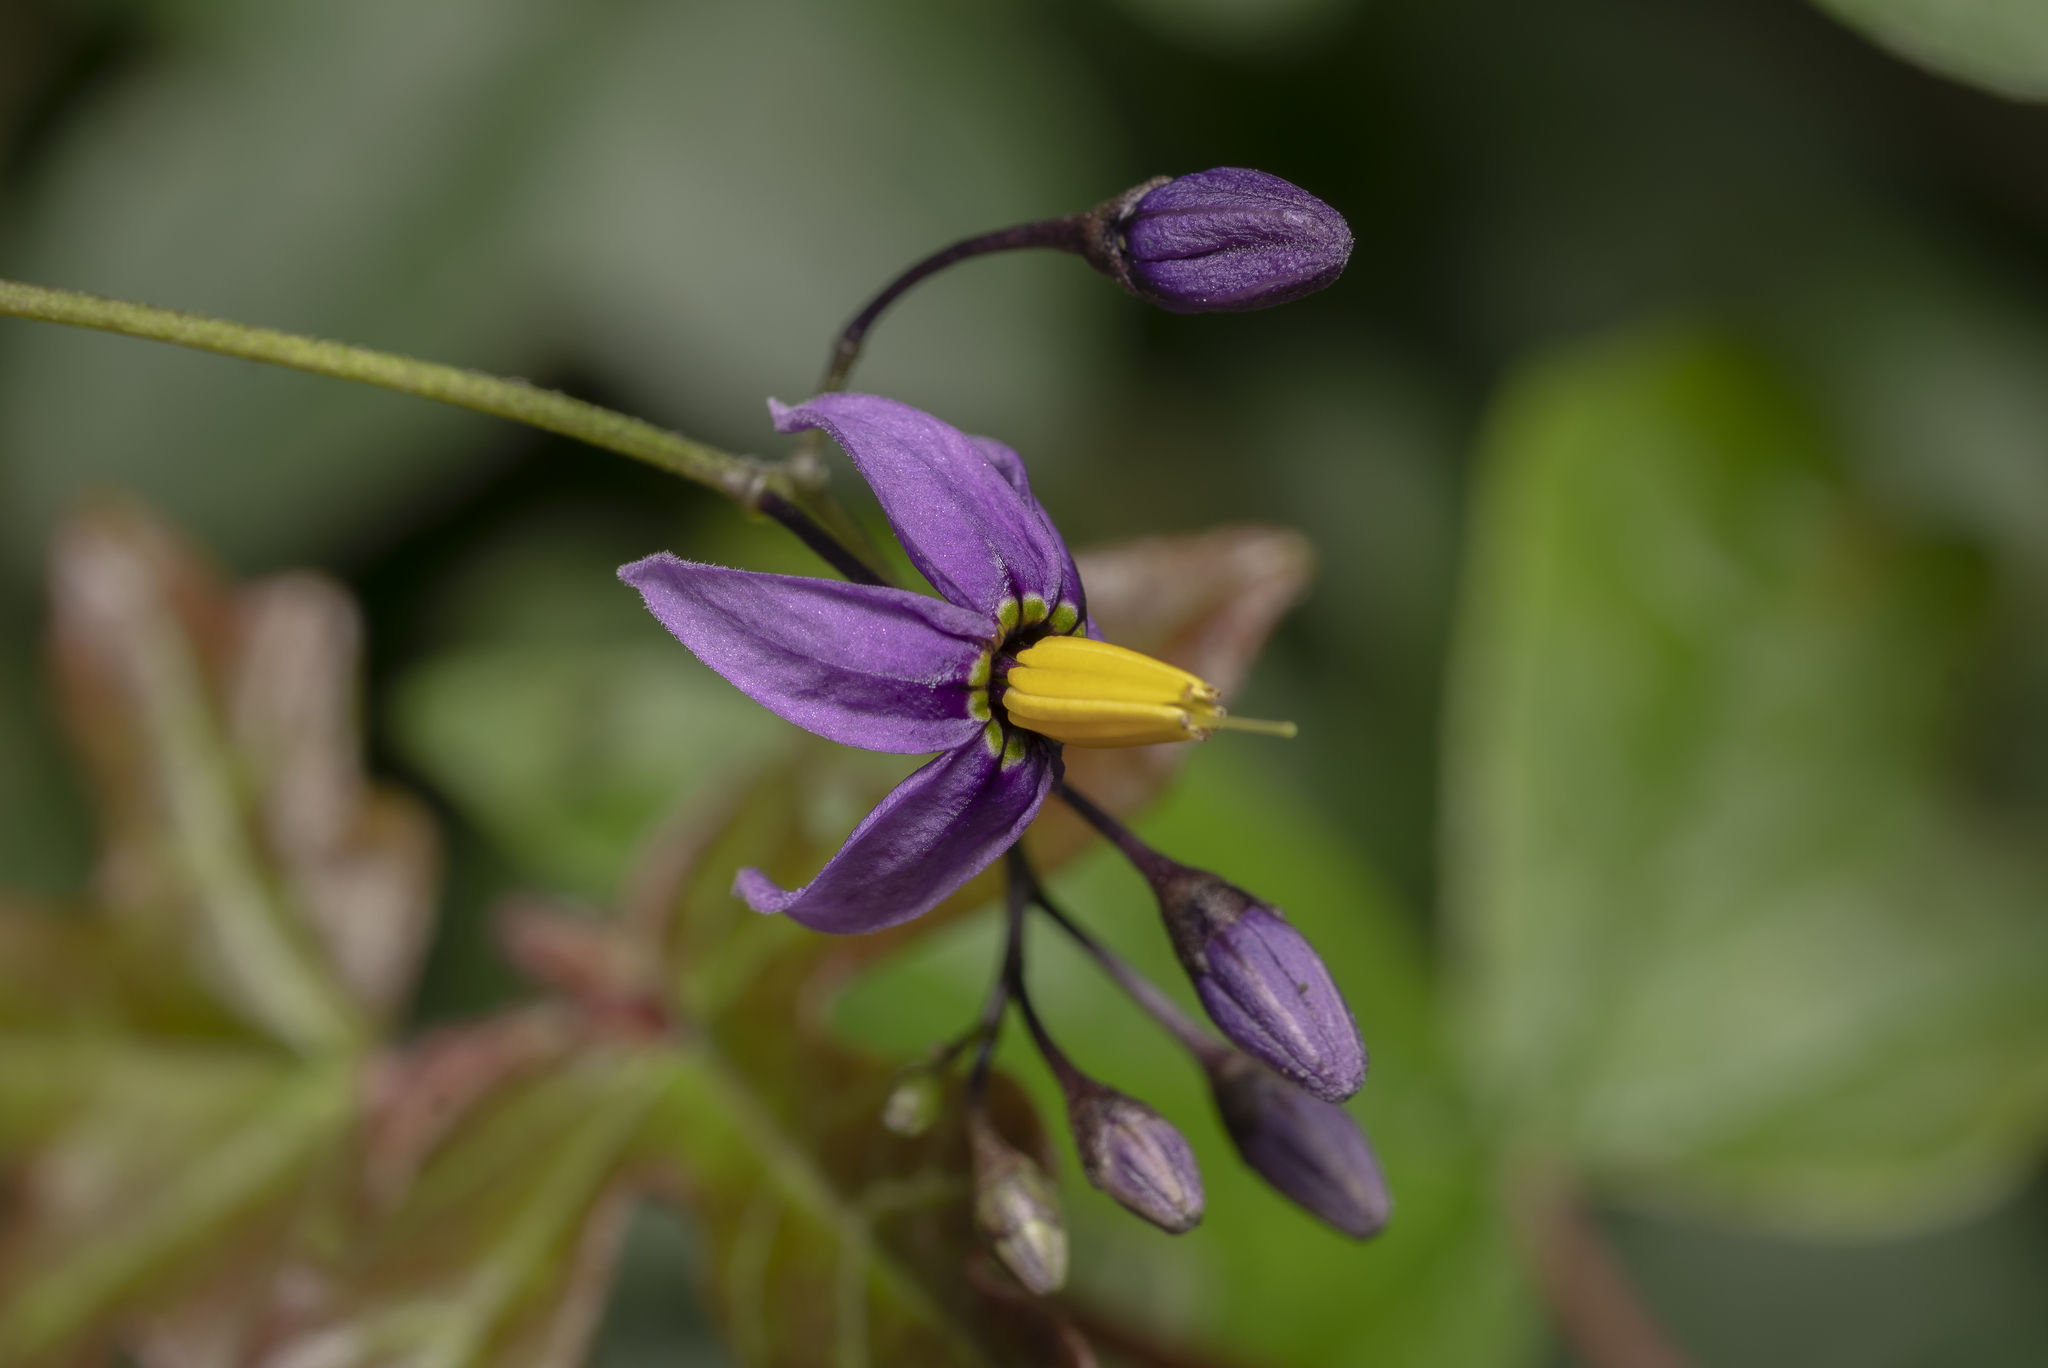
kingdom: Plantae
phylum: Tracheophyta
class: Magnoliopsida
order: Solanales
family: Solanaceae
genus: Solanum
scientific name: Solanum dulcamara
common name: Climbing nightshade
